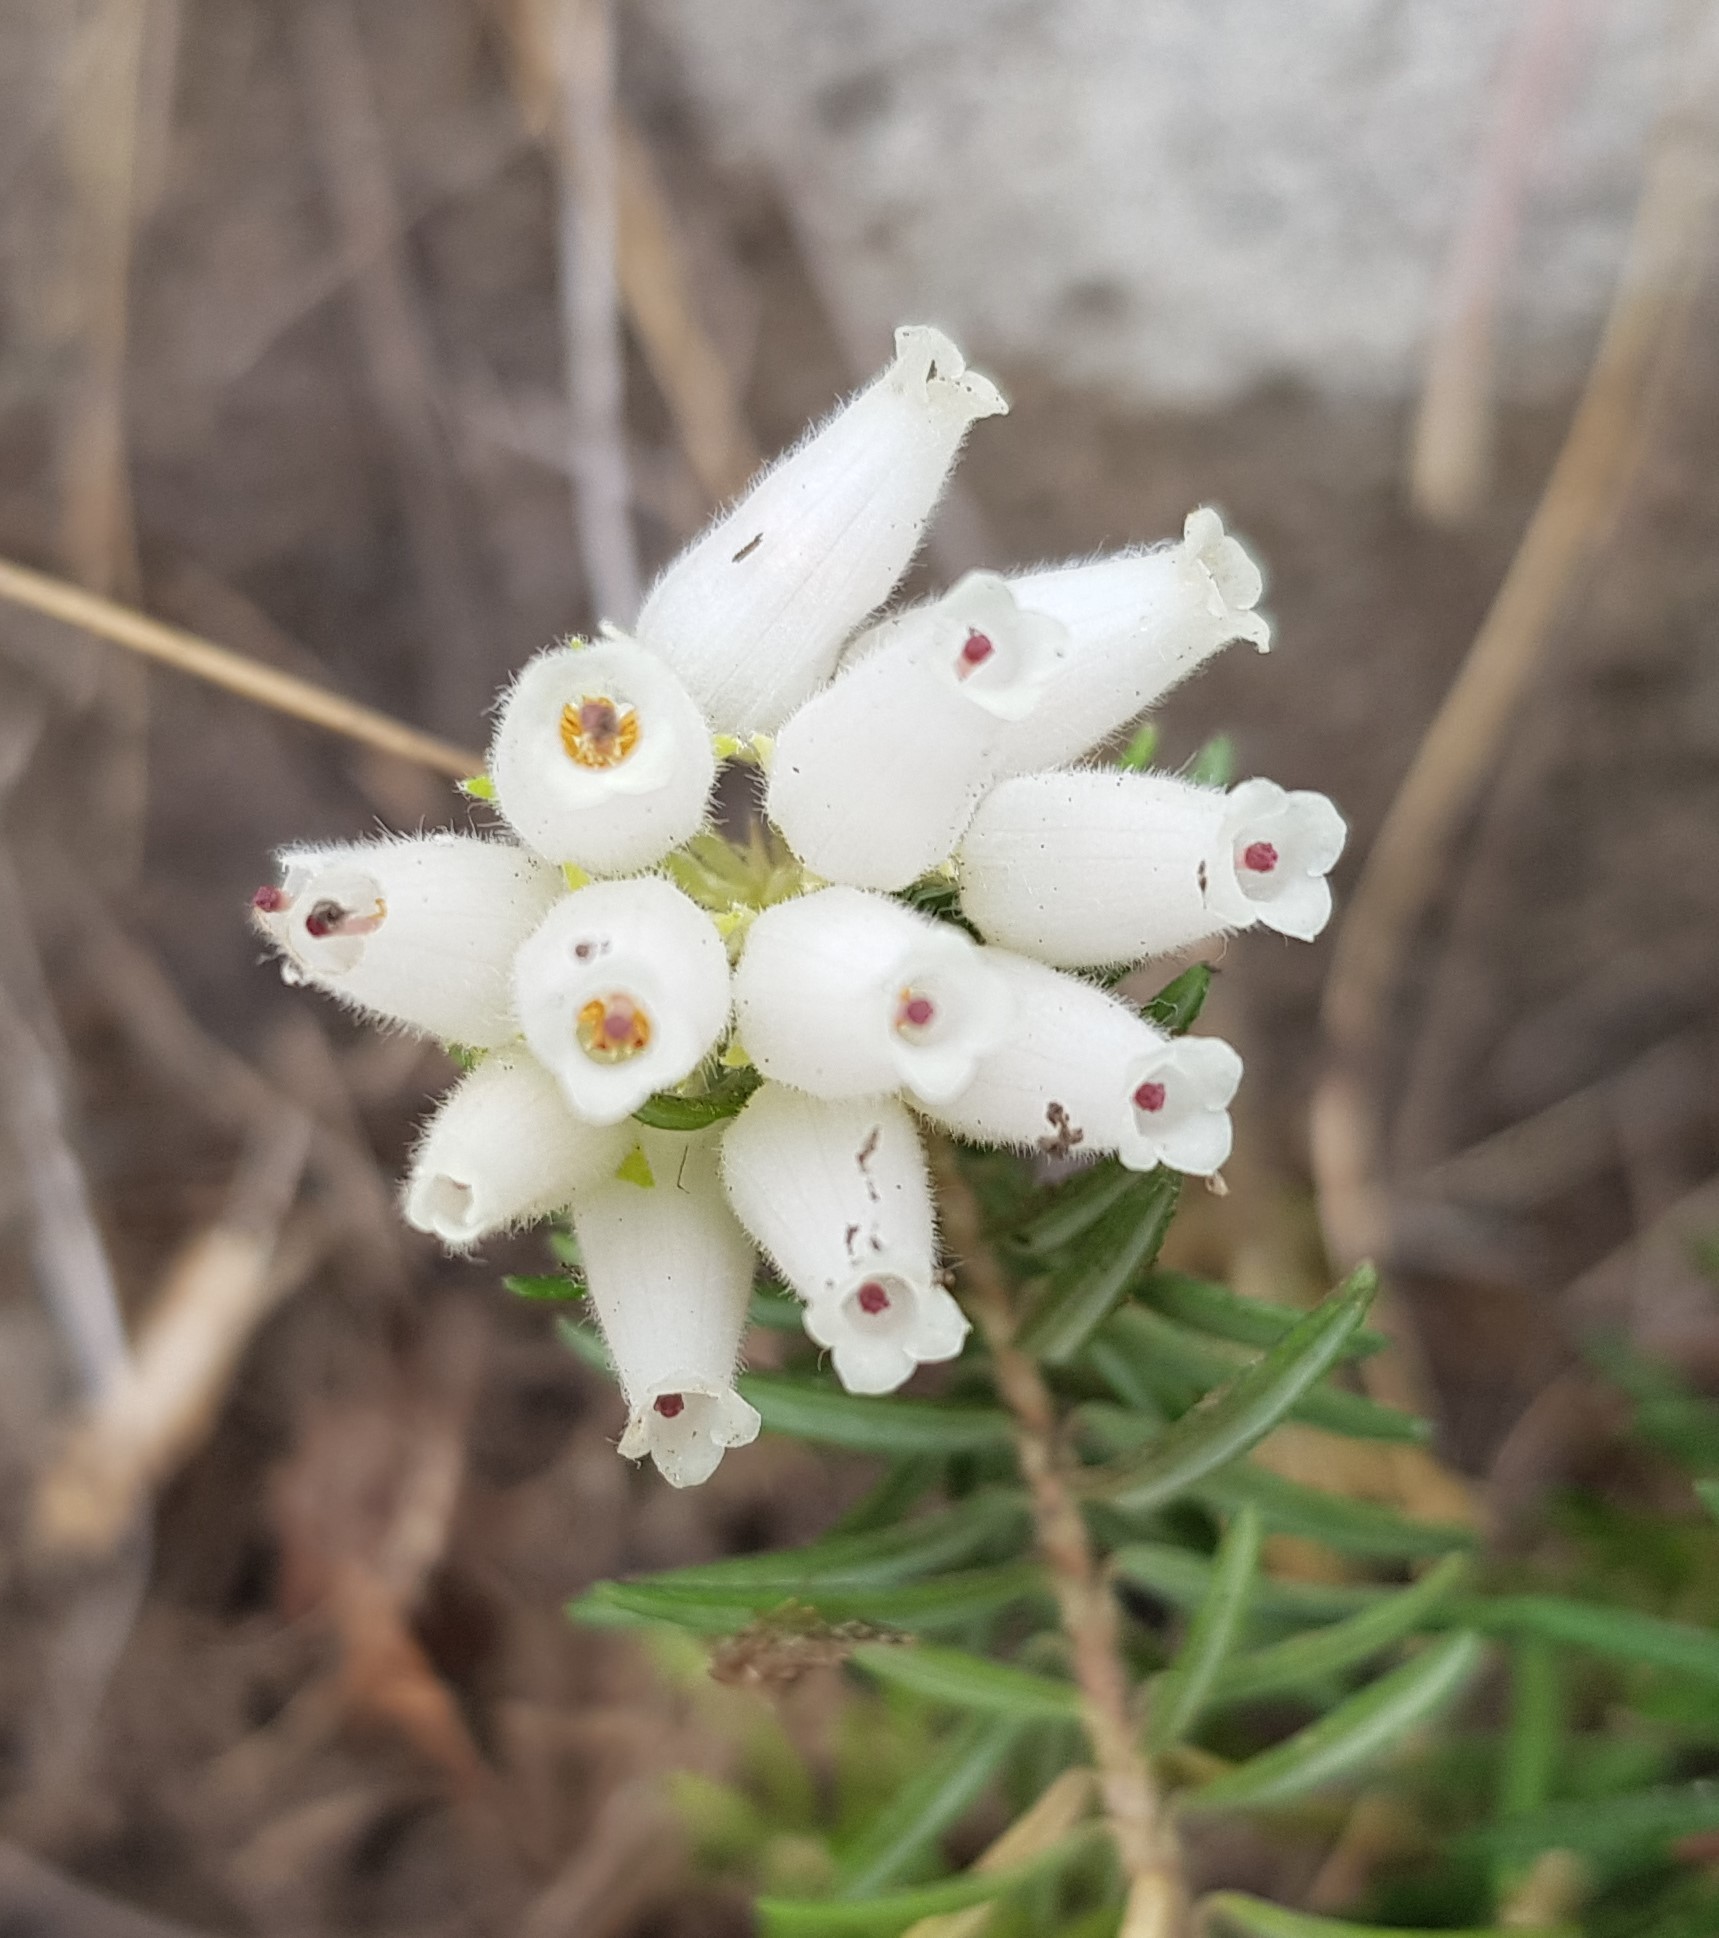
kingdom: Plantae
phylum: Tracheophyta
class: Magnoliopsida
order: Ericales
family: Ericaceae
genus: Erica
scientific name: Erica caffra
